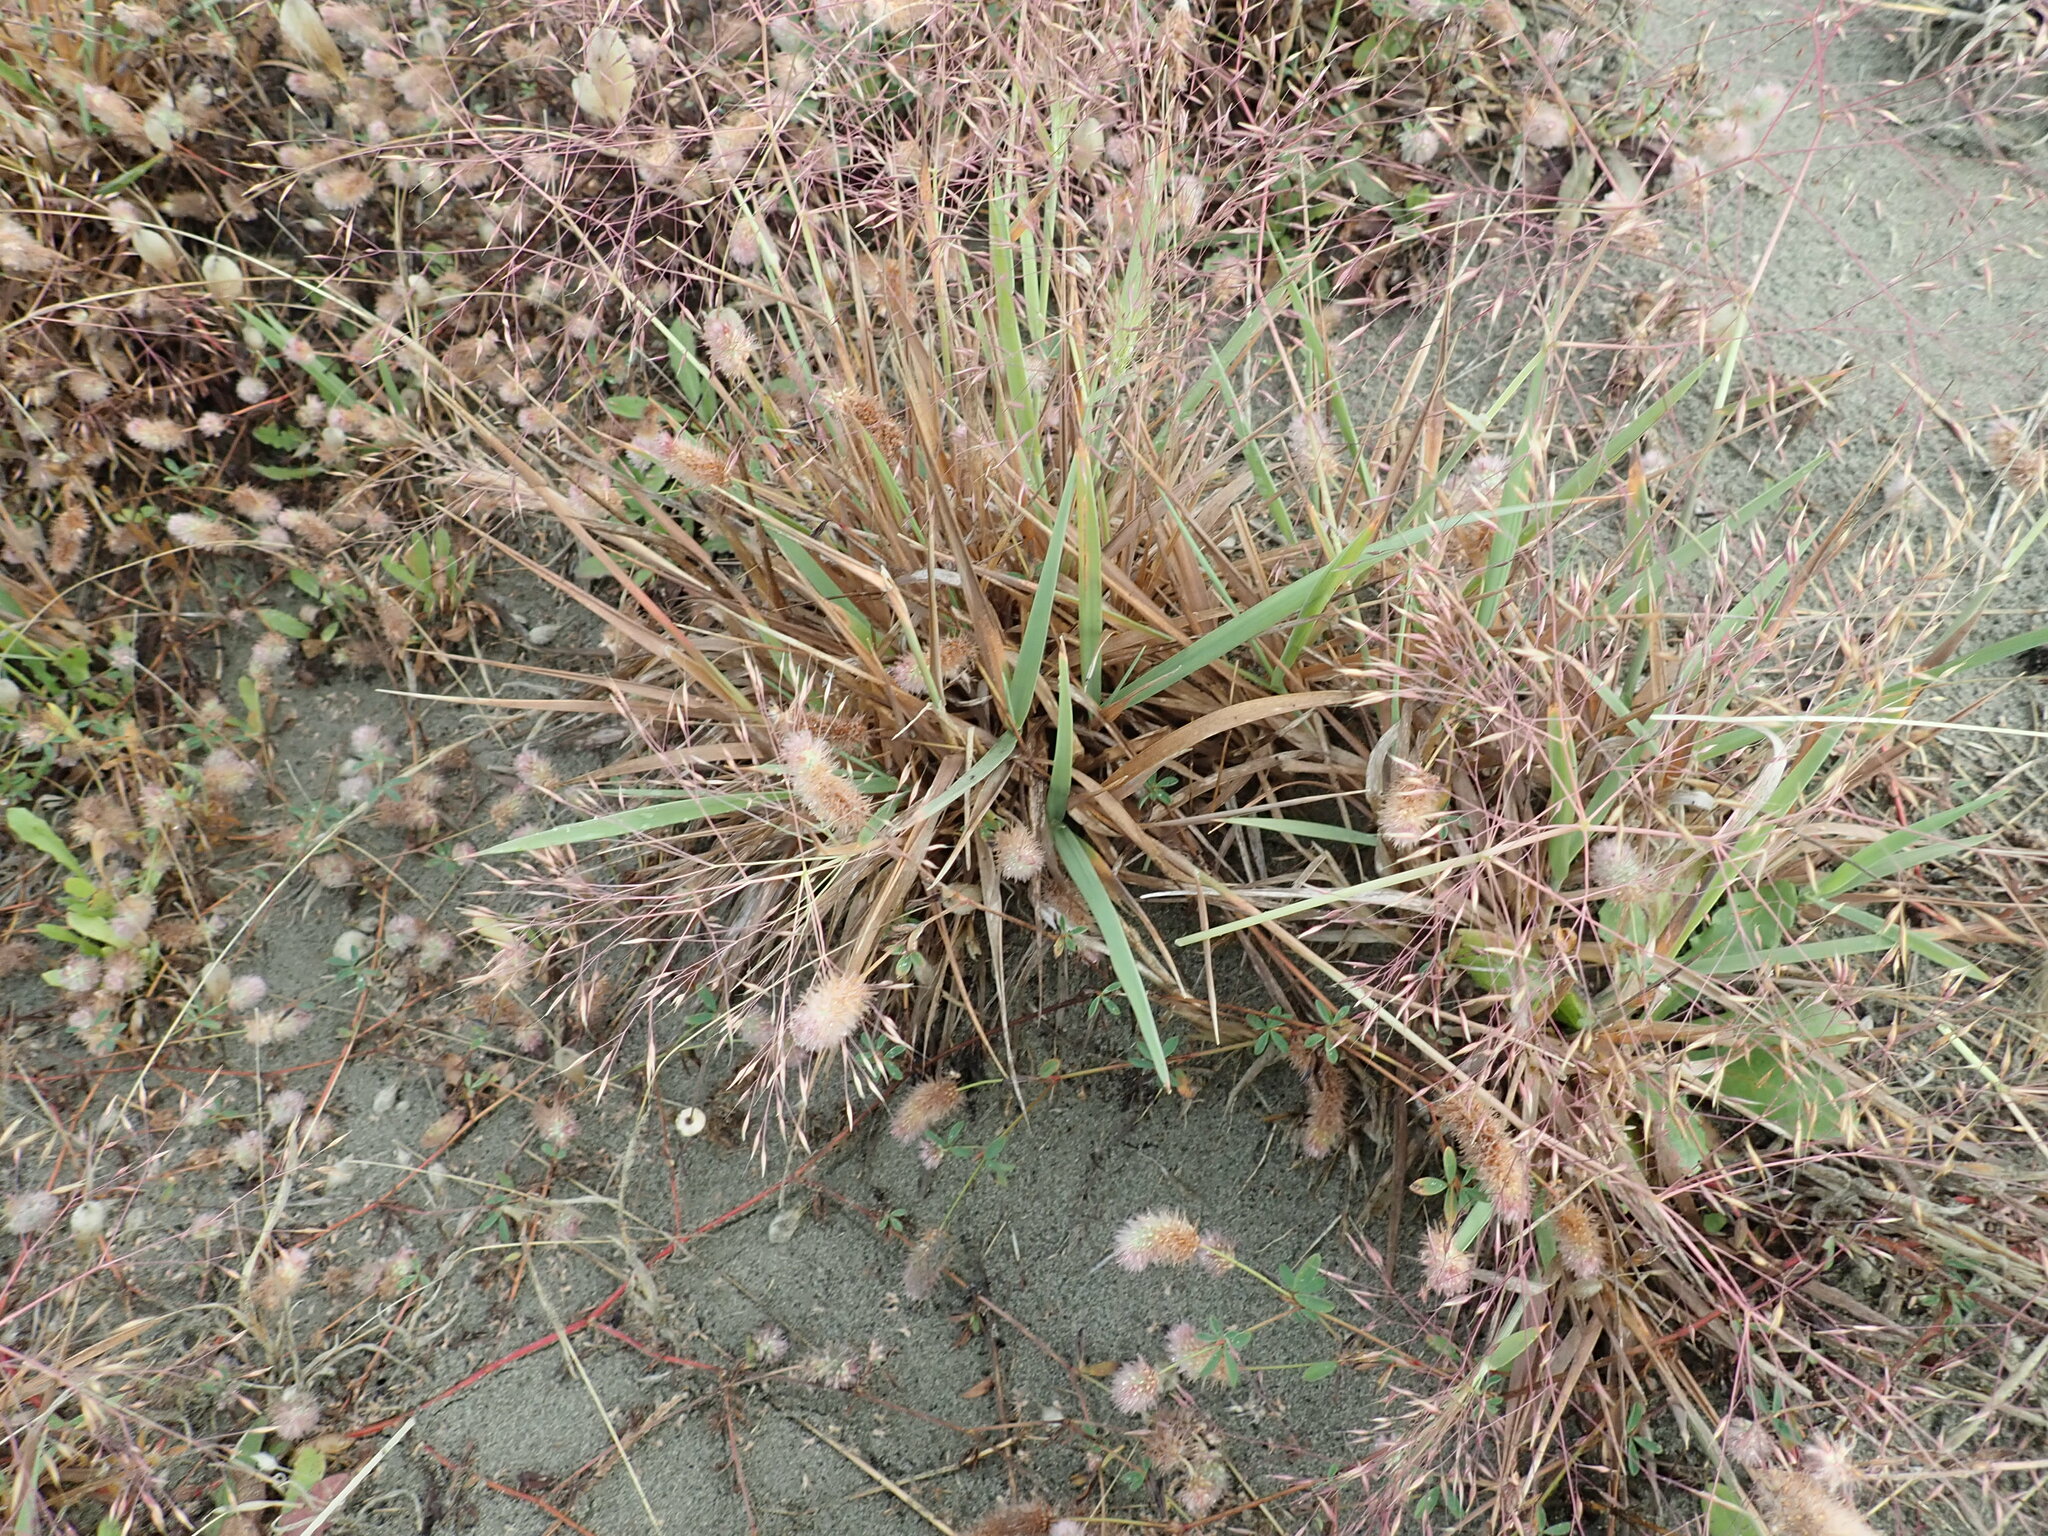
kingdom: Plantae
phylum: Tracheophyta
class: Liliopsida
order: Poales
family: Poaceae
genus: Lachnagrostis
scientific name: Lachnagrostis billardierei
